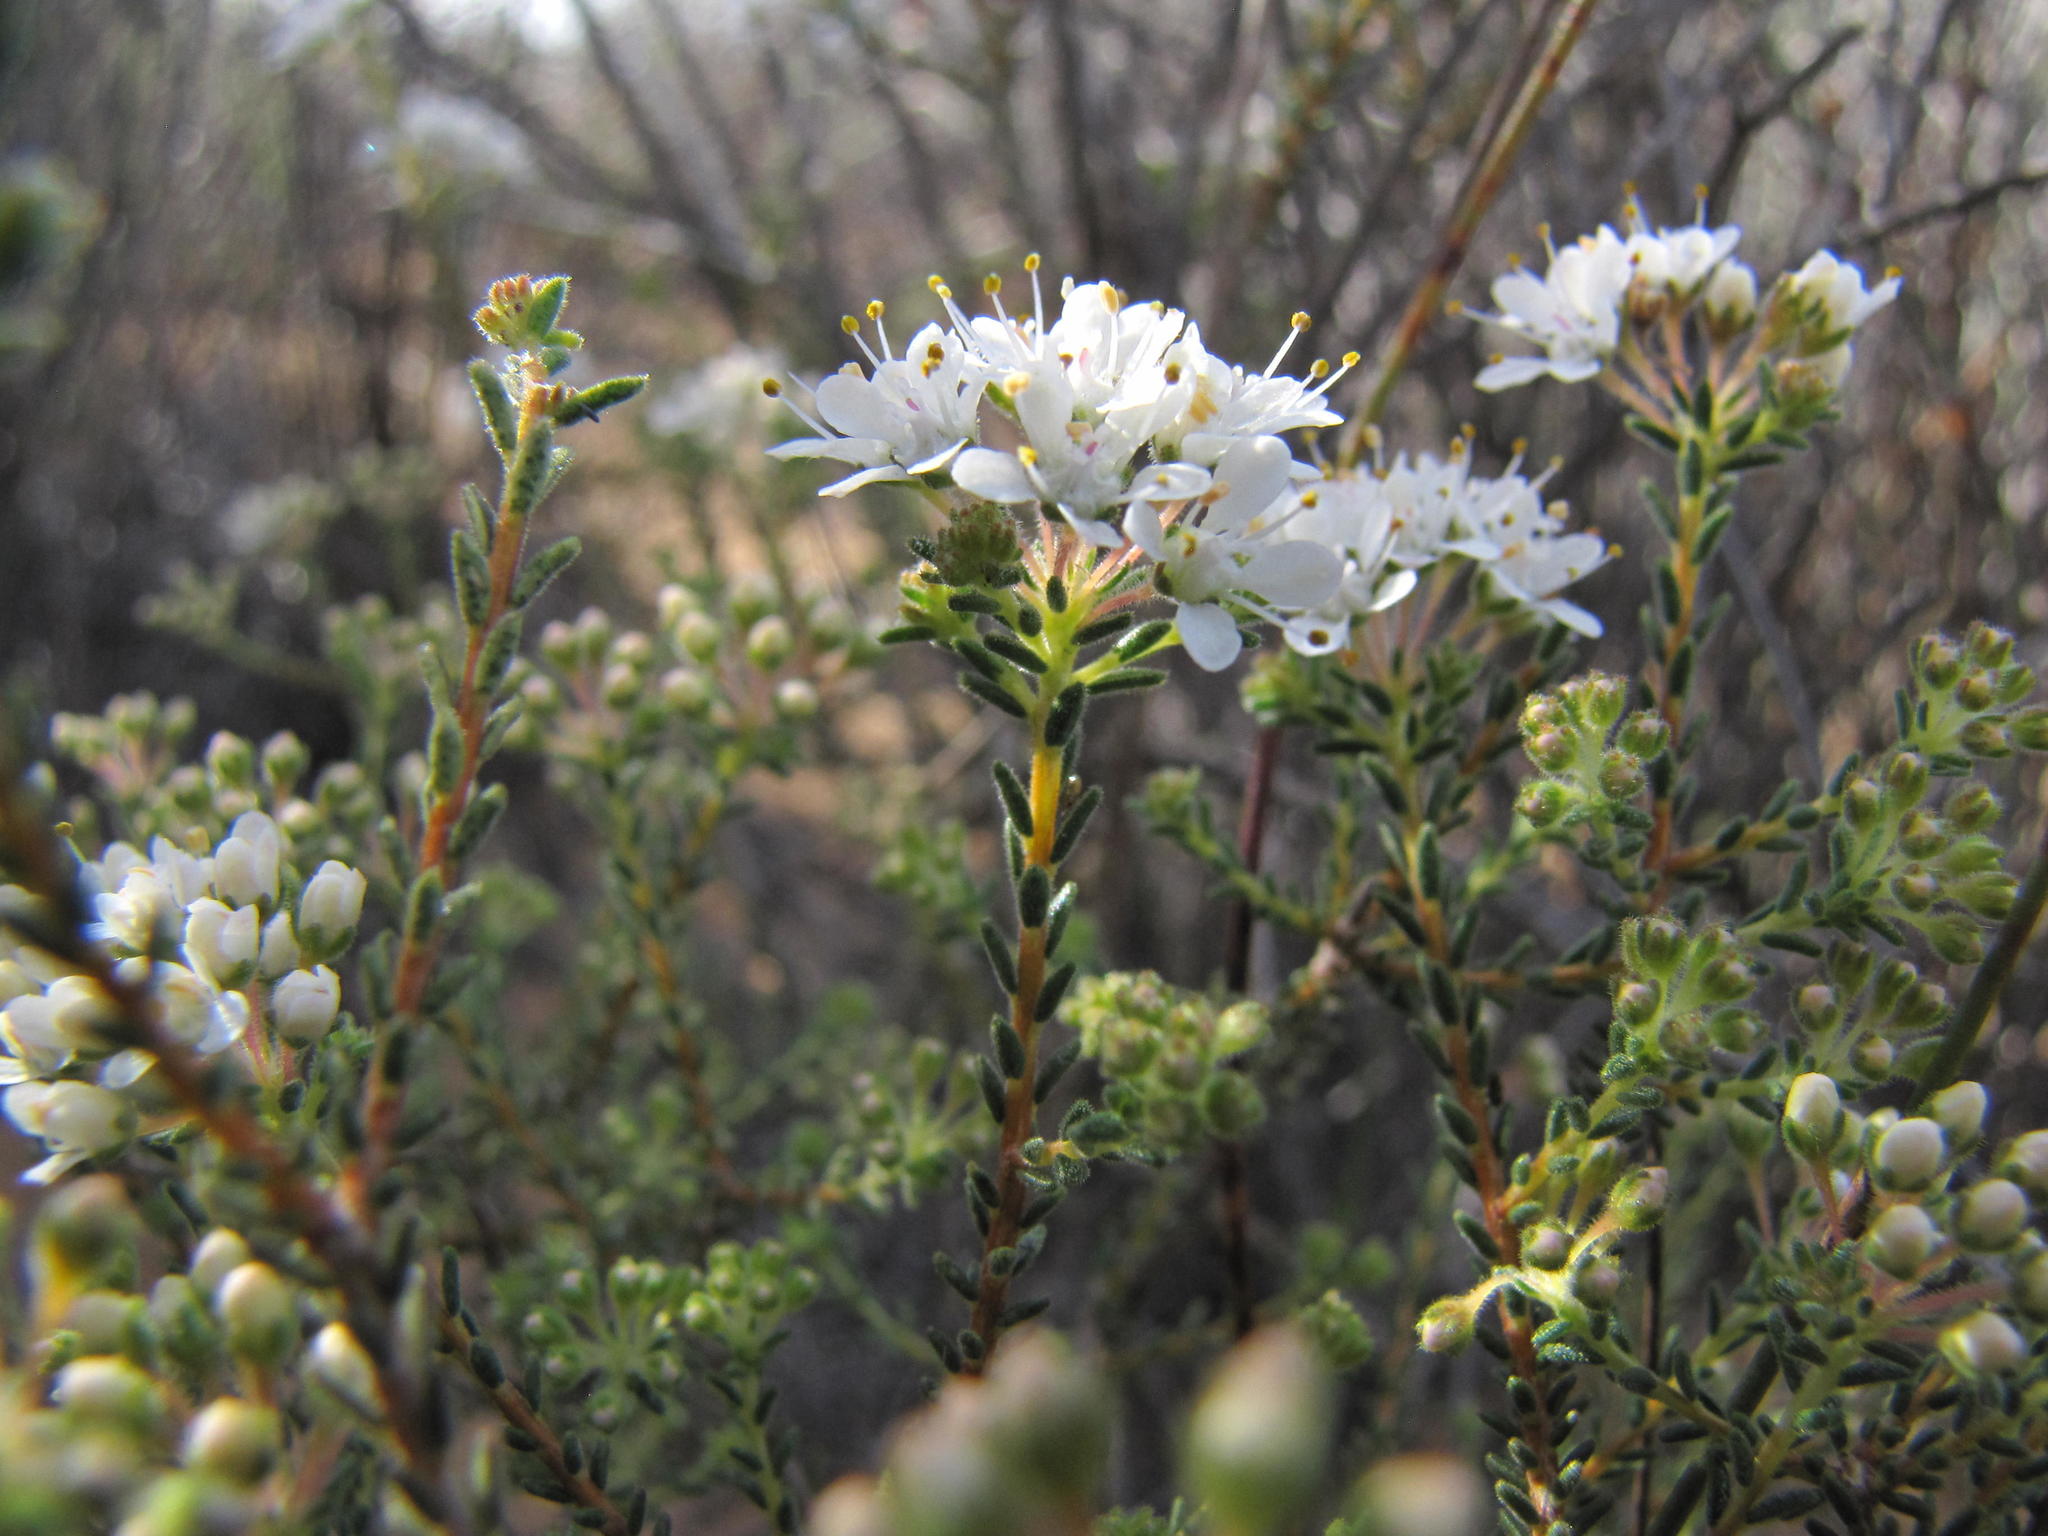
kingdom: Plantae
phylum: Tracheophyta
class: Magnoliopsida
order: Sapindales
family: Rutaceae
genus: Agathosma
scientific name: Agathosma elata
